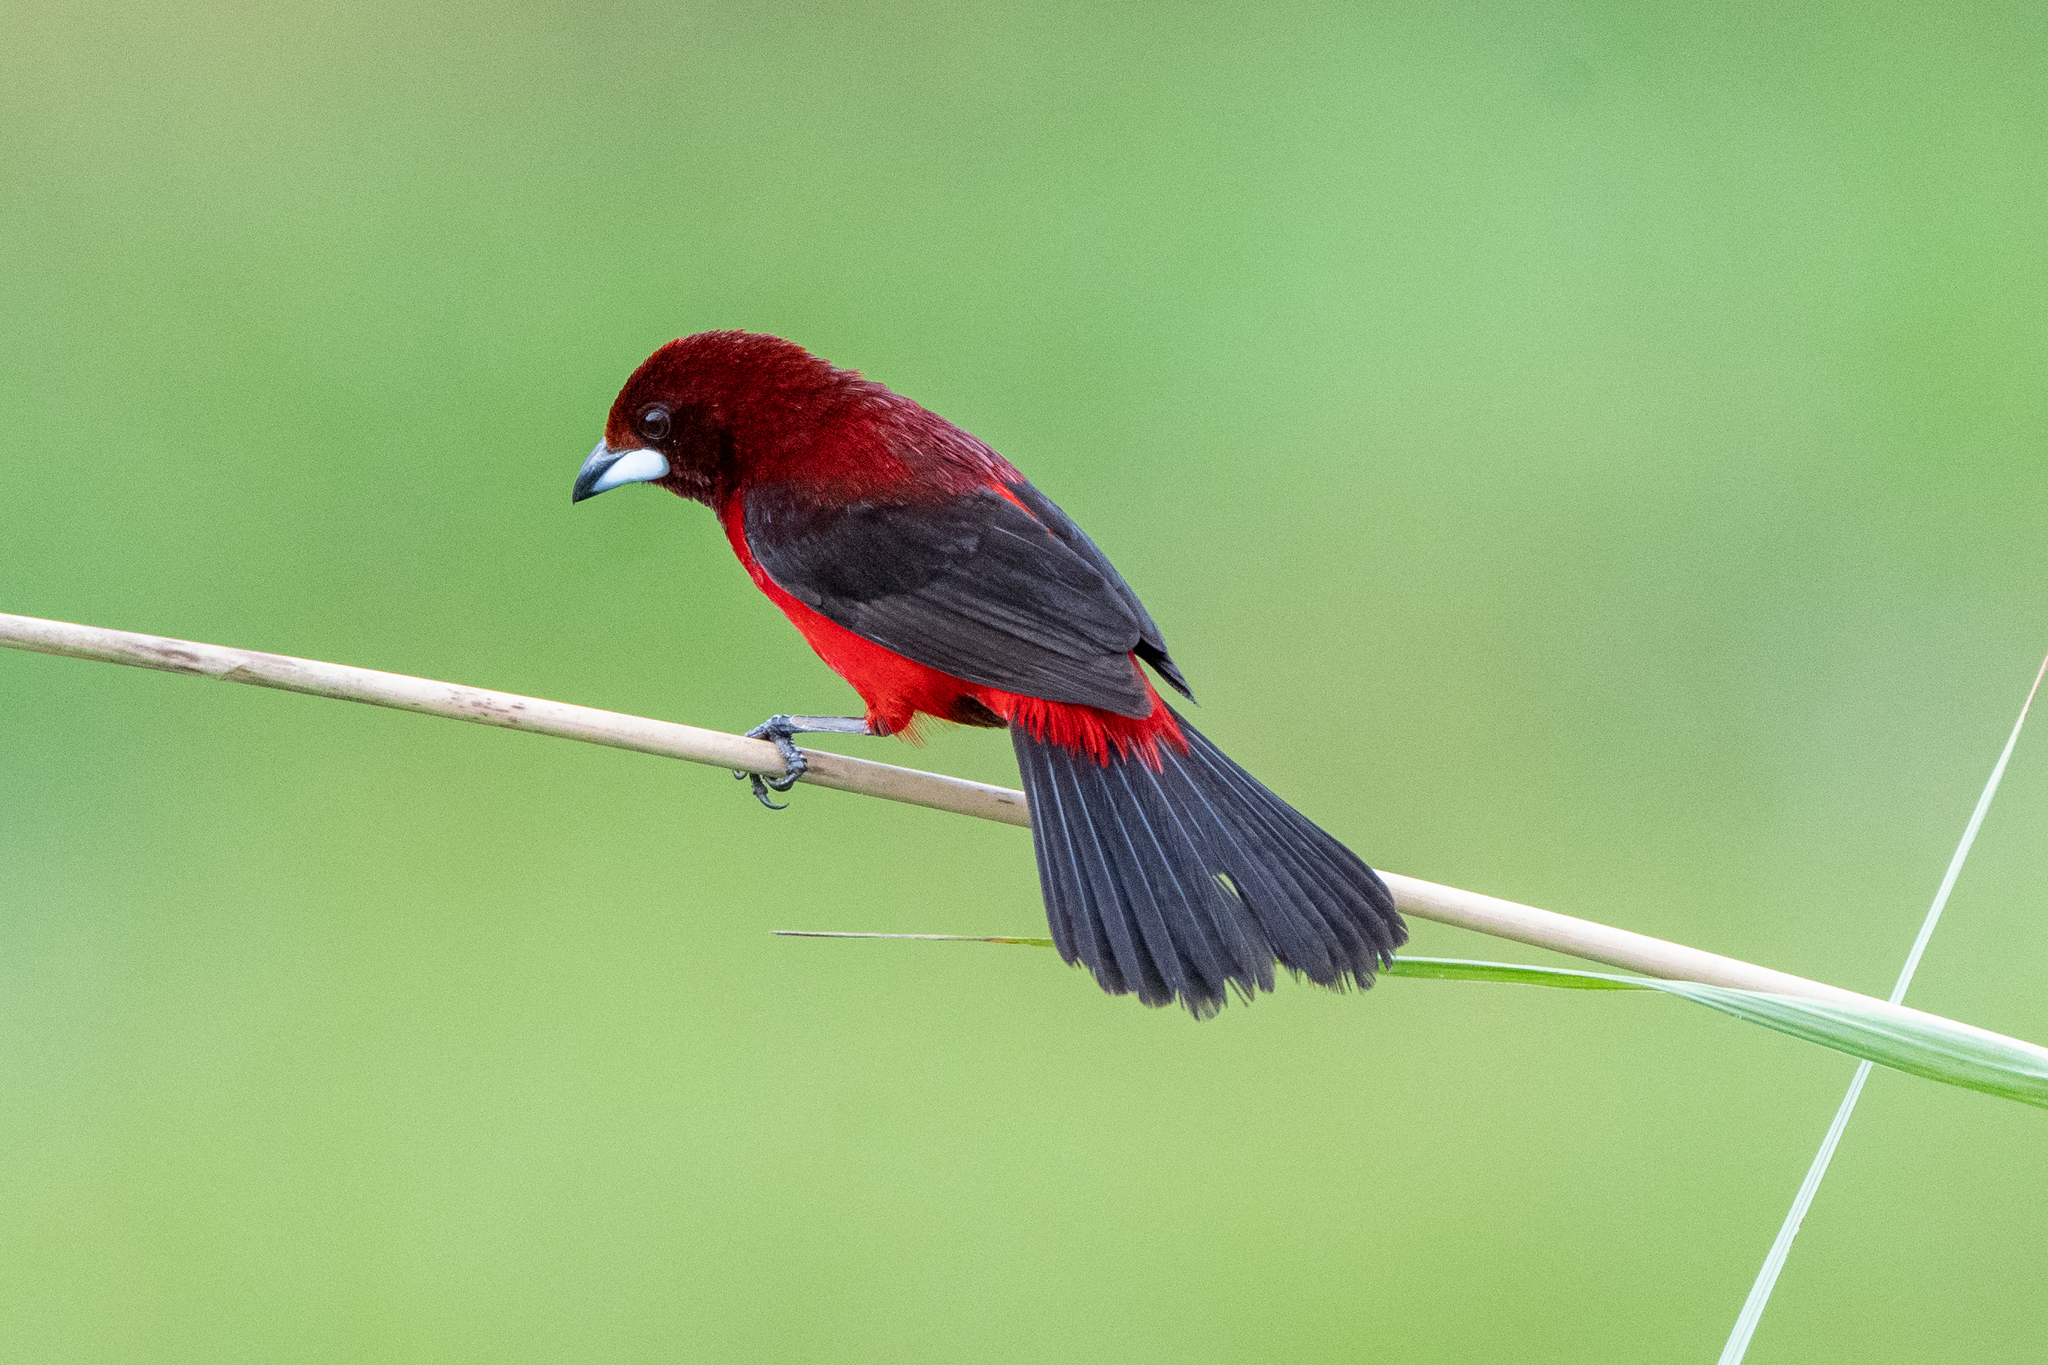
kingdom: Animalia
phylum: Chordata
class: Aves
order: Passeriformes
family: Thraupidae
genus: Ramphocelus
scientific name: Ramphocelus dimidiatus
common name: Crimson-backed tanager
